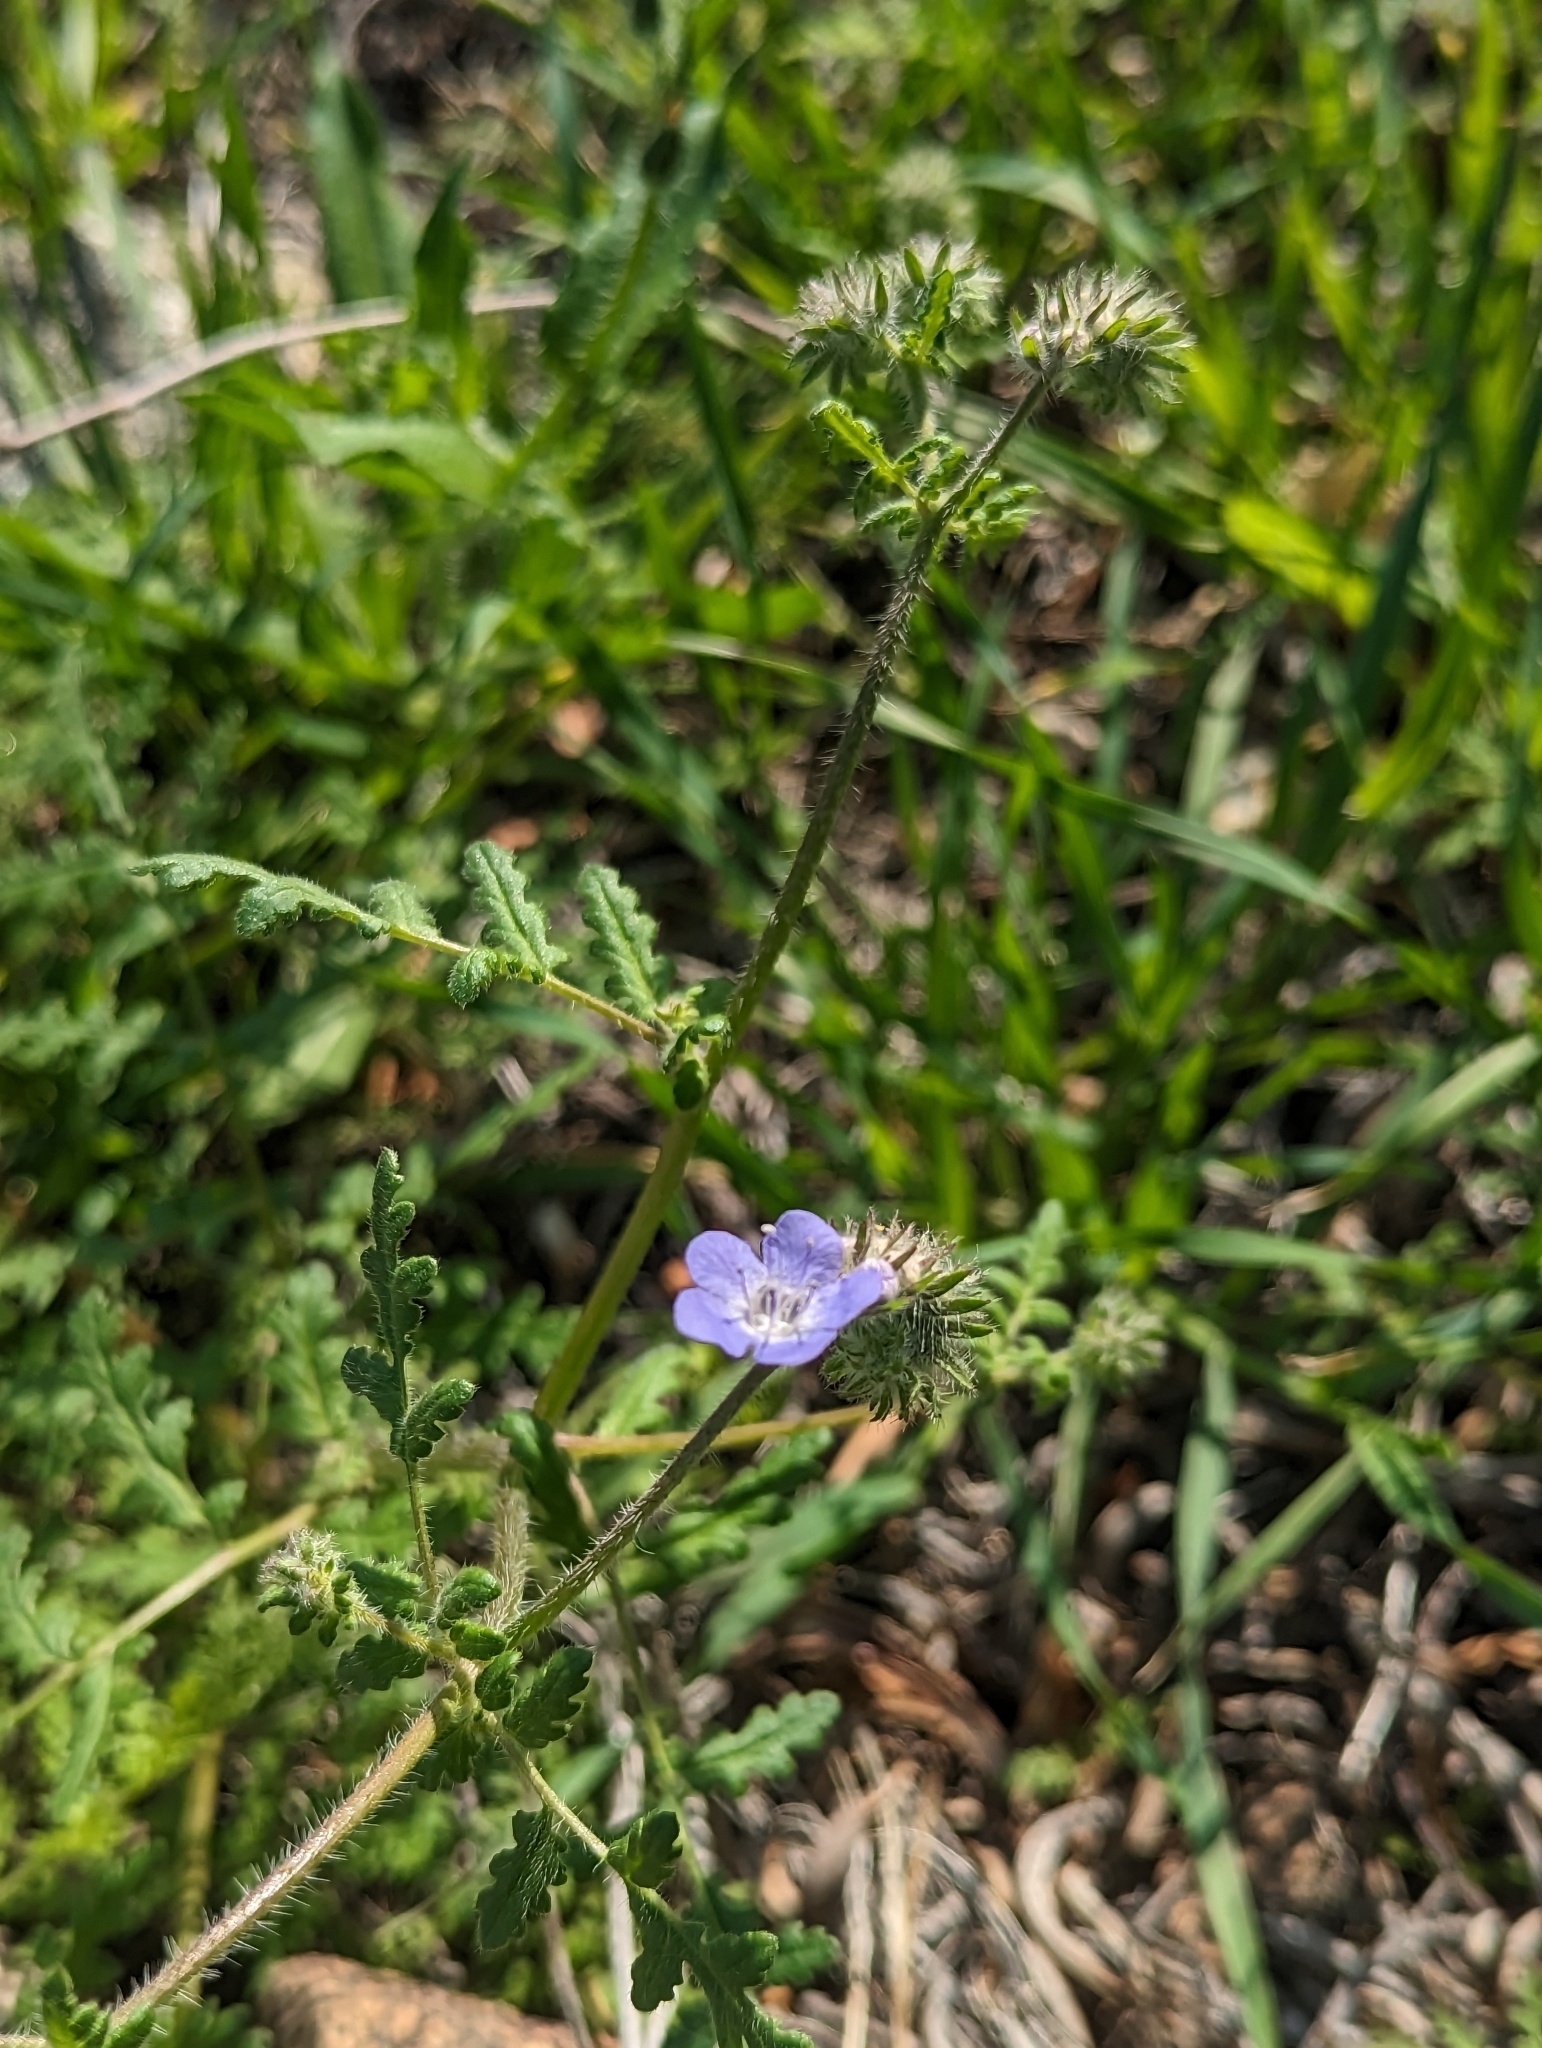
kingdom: Plantae
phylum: Tracheophyta
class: Magnoliopsida
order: Boraginales
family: Hydrophyllaceae
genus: Phacelia
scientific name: Phacelia distans
